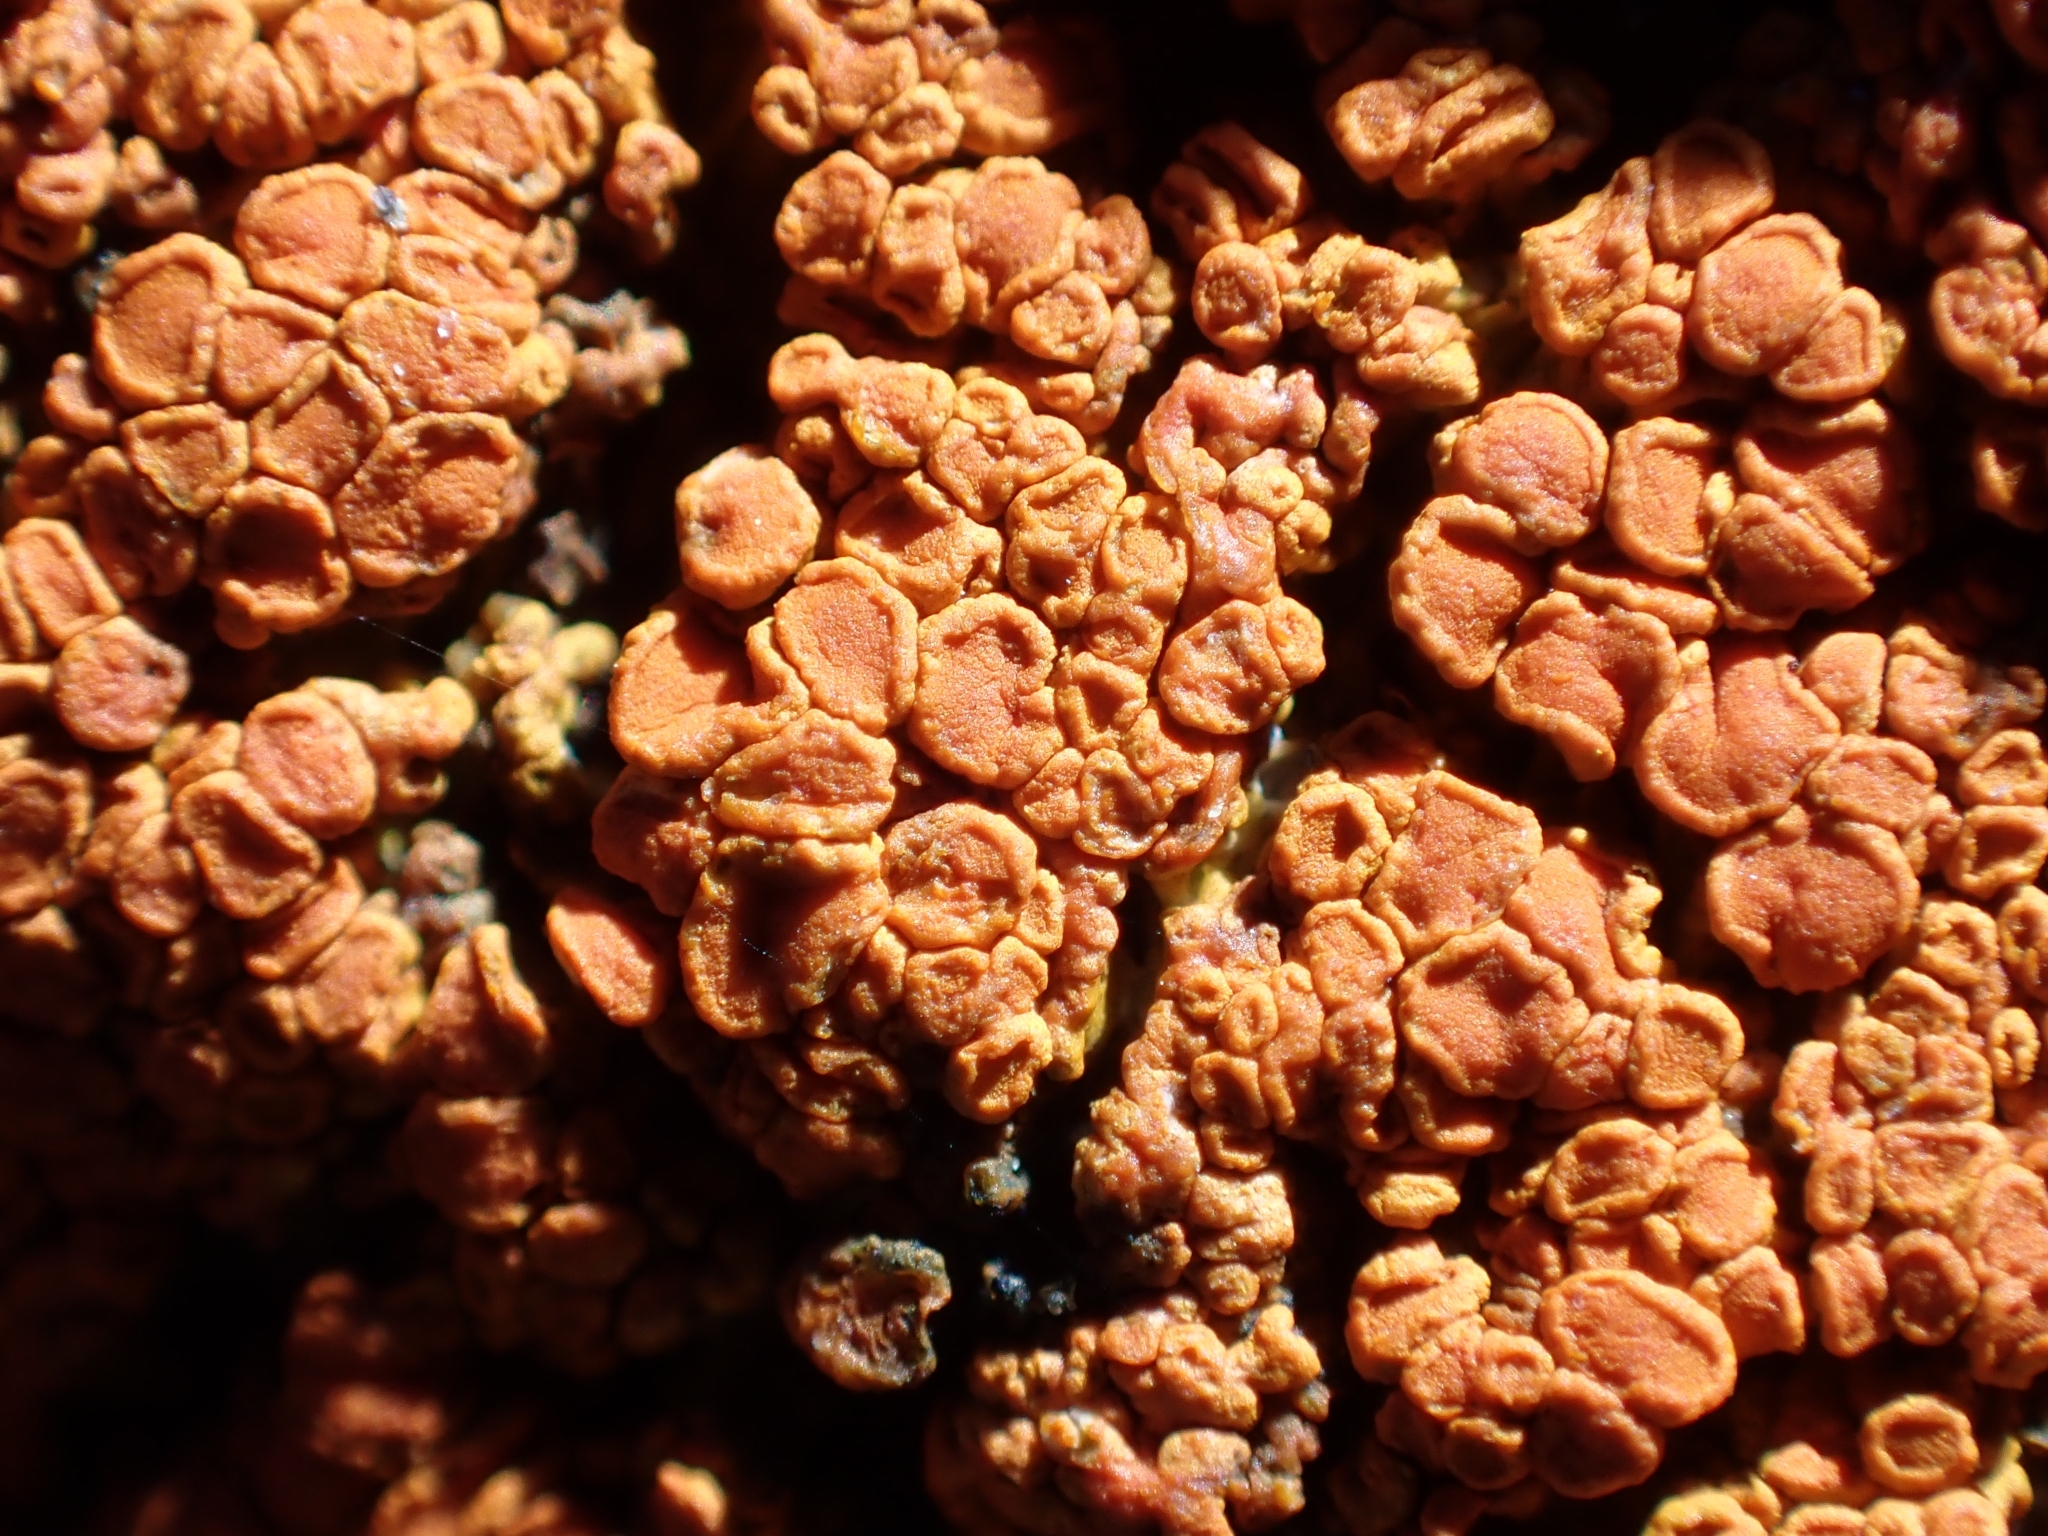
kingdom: Fungi
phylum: Ascomycota
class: Lecanoromycetes
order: Teloschistales
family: Teloschistaceae
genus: Xanthoria
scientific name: Xanthoria elegans
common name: Elegant sunburst lichen
